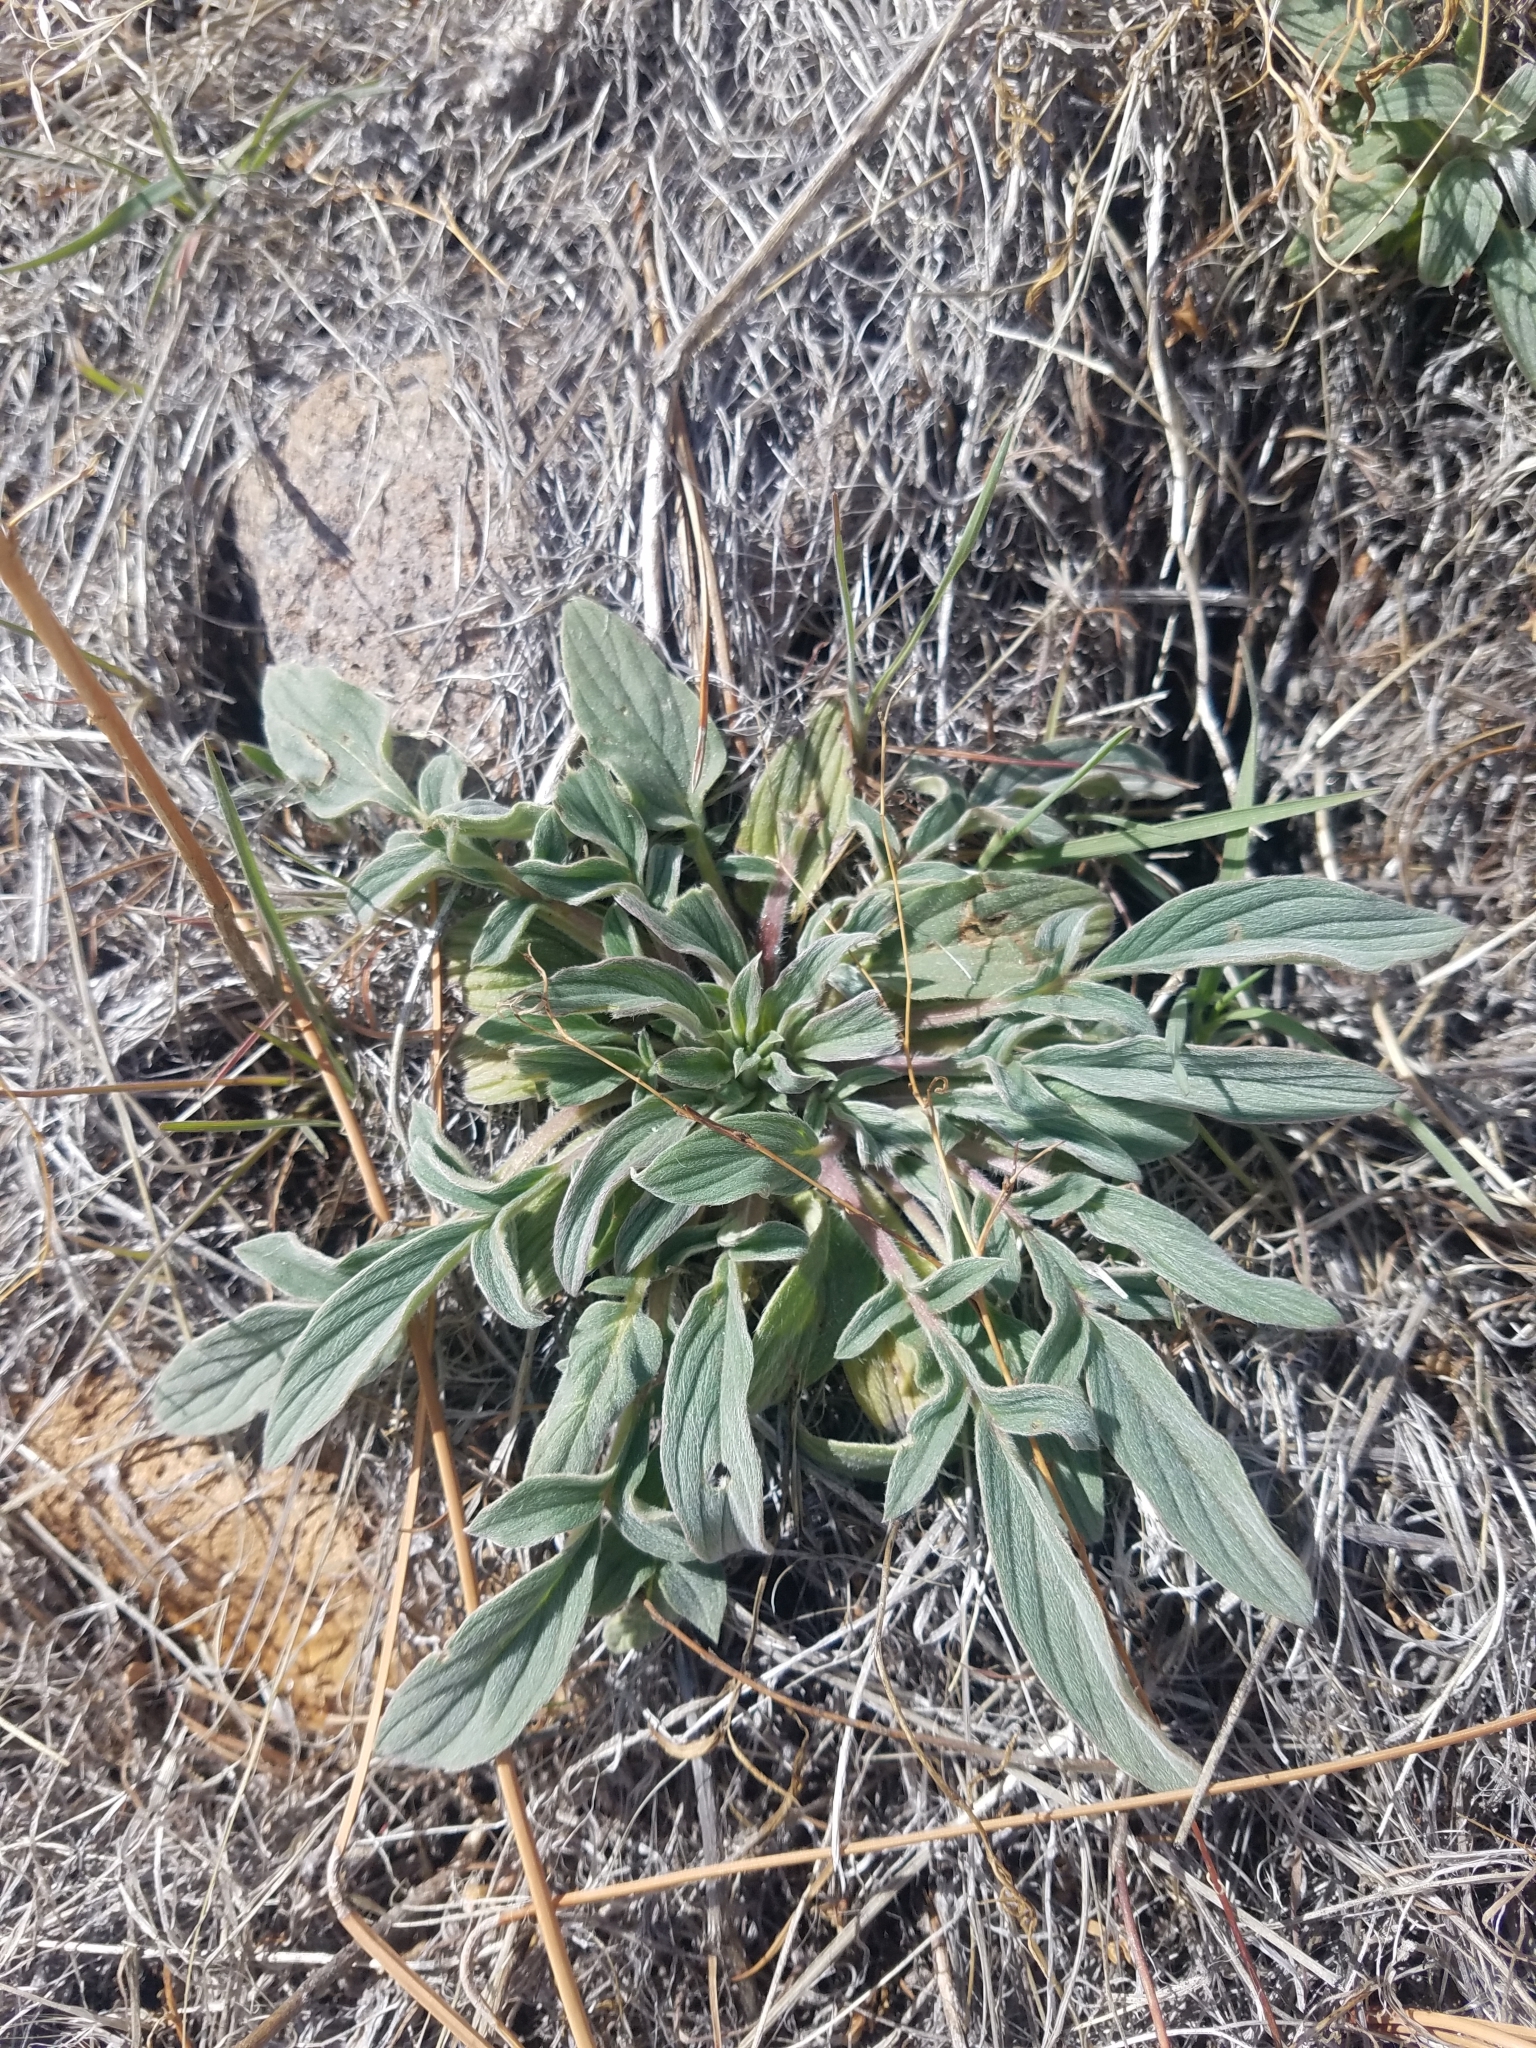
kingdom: Plantae
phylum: Tracheophyta
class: Magnoliopsida
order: Boraginales
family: Hydrophyllaceae
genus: Phacelia
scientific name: Phacelia hastata
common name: Silver-leaved phacelia
